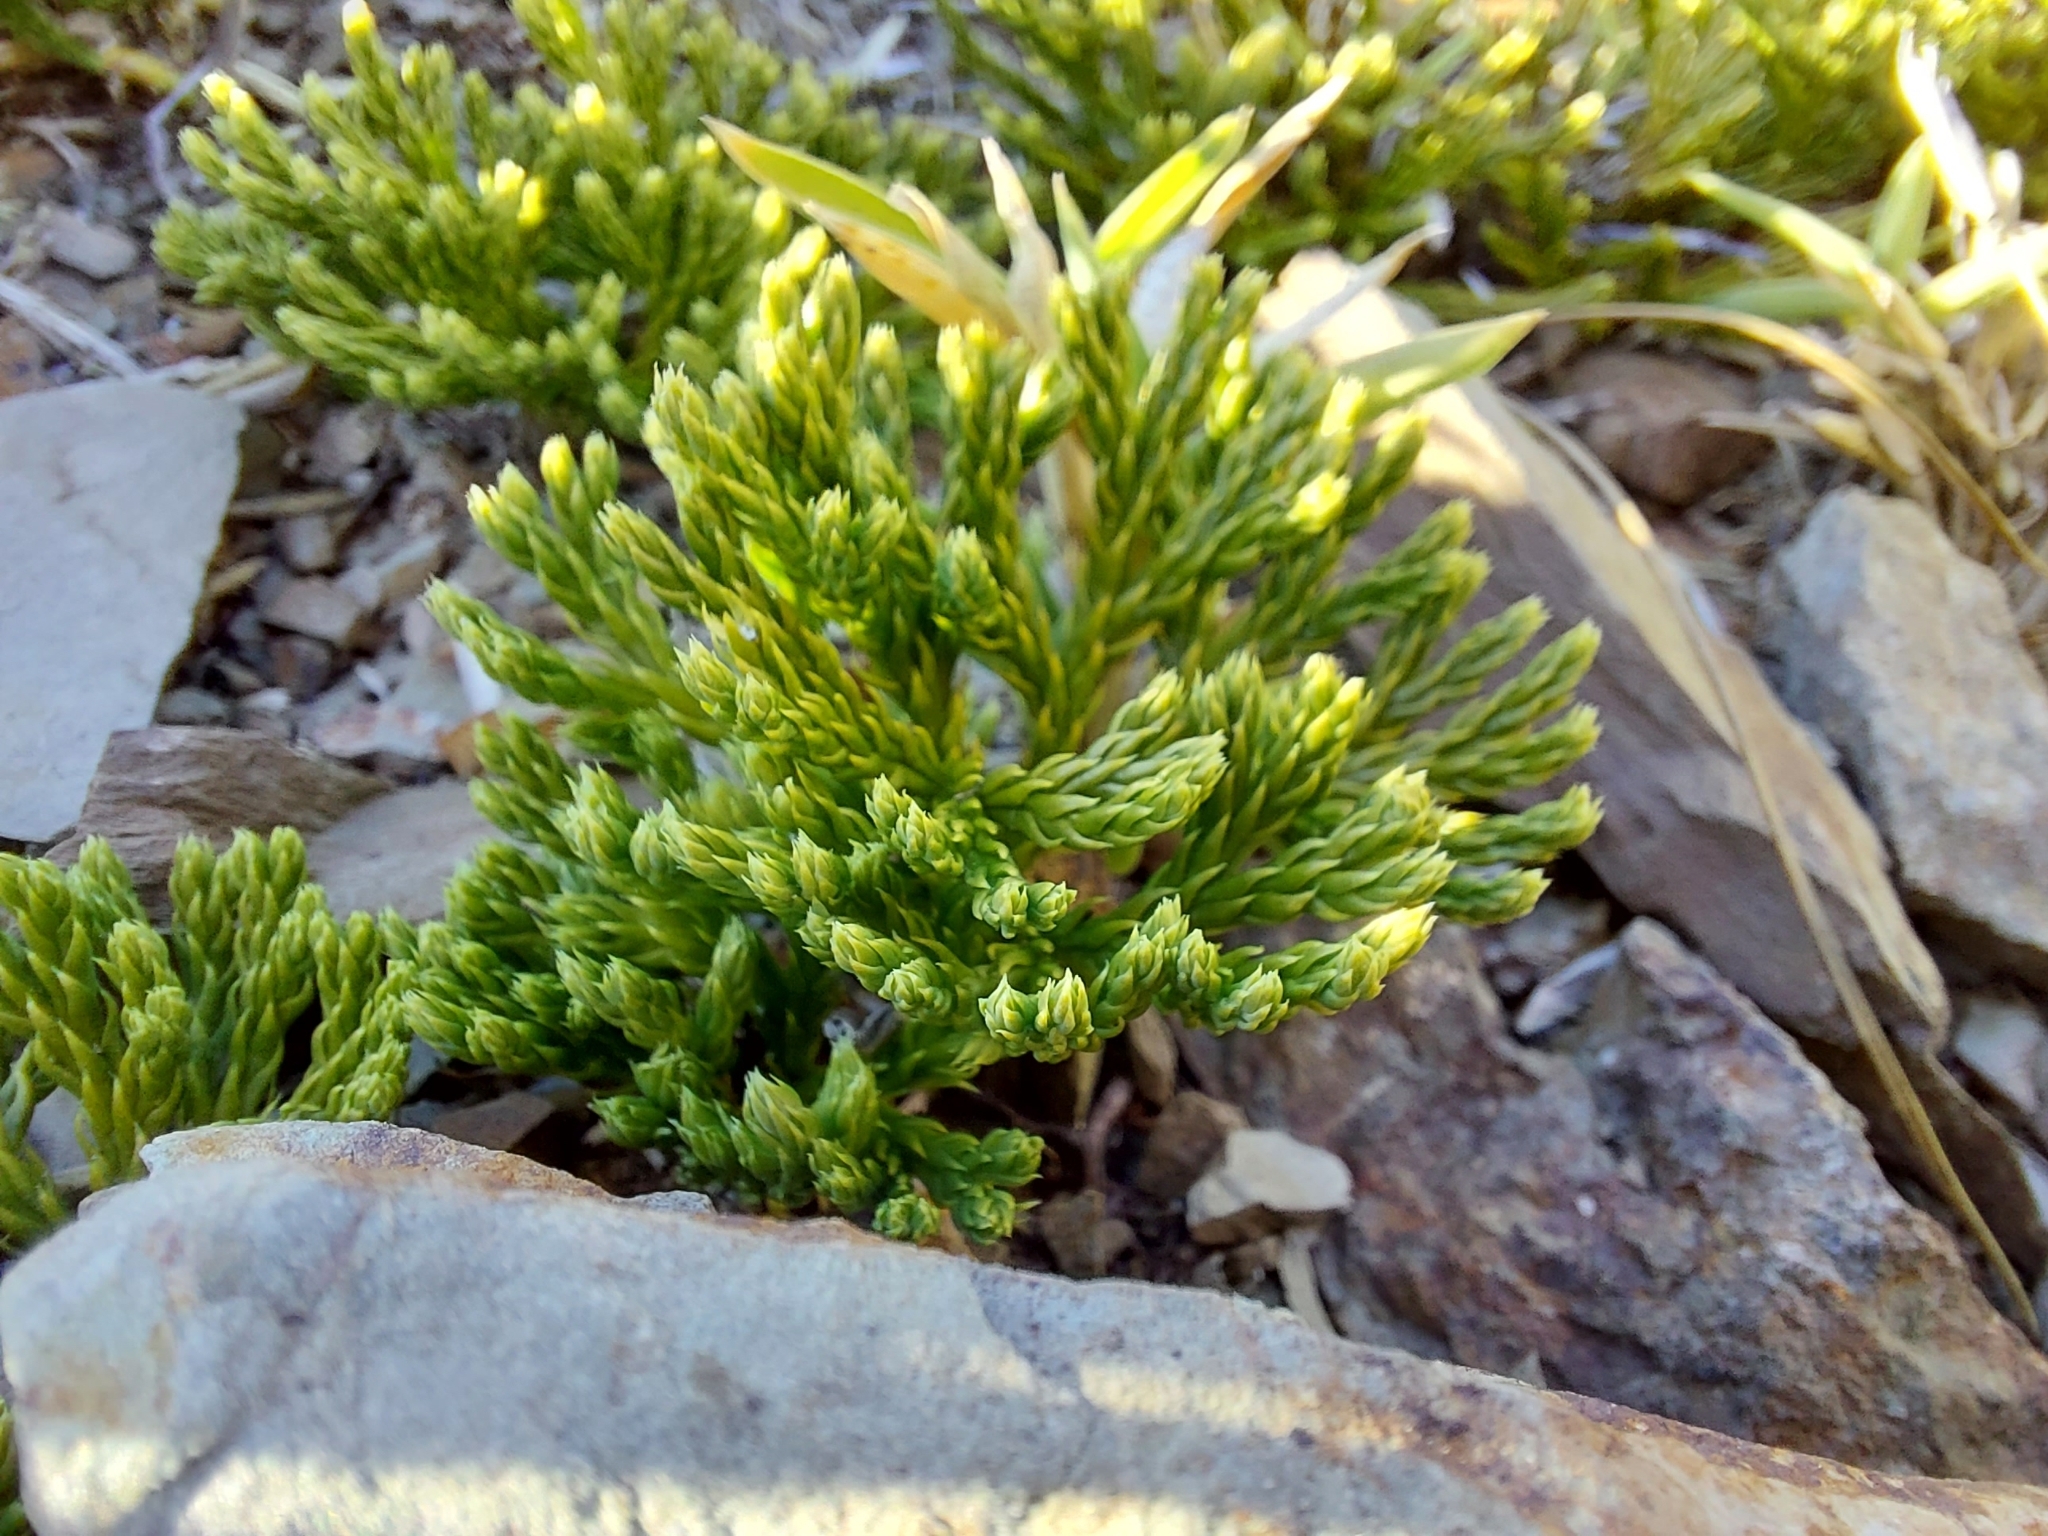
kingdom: Plantae
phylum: Tracheophyta
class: Lycopodiopsida
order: Lycopodiales
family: Lycopodiaceae
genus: Diphasiastrum
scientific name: Diphasiastrum veitchii
